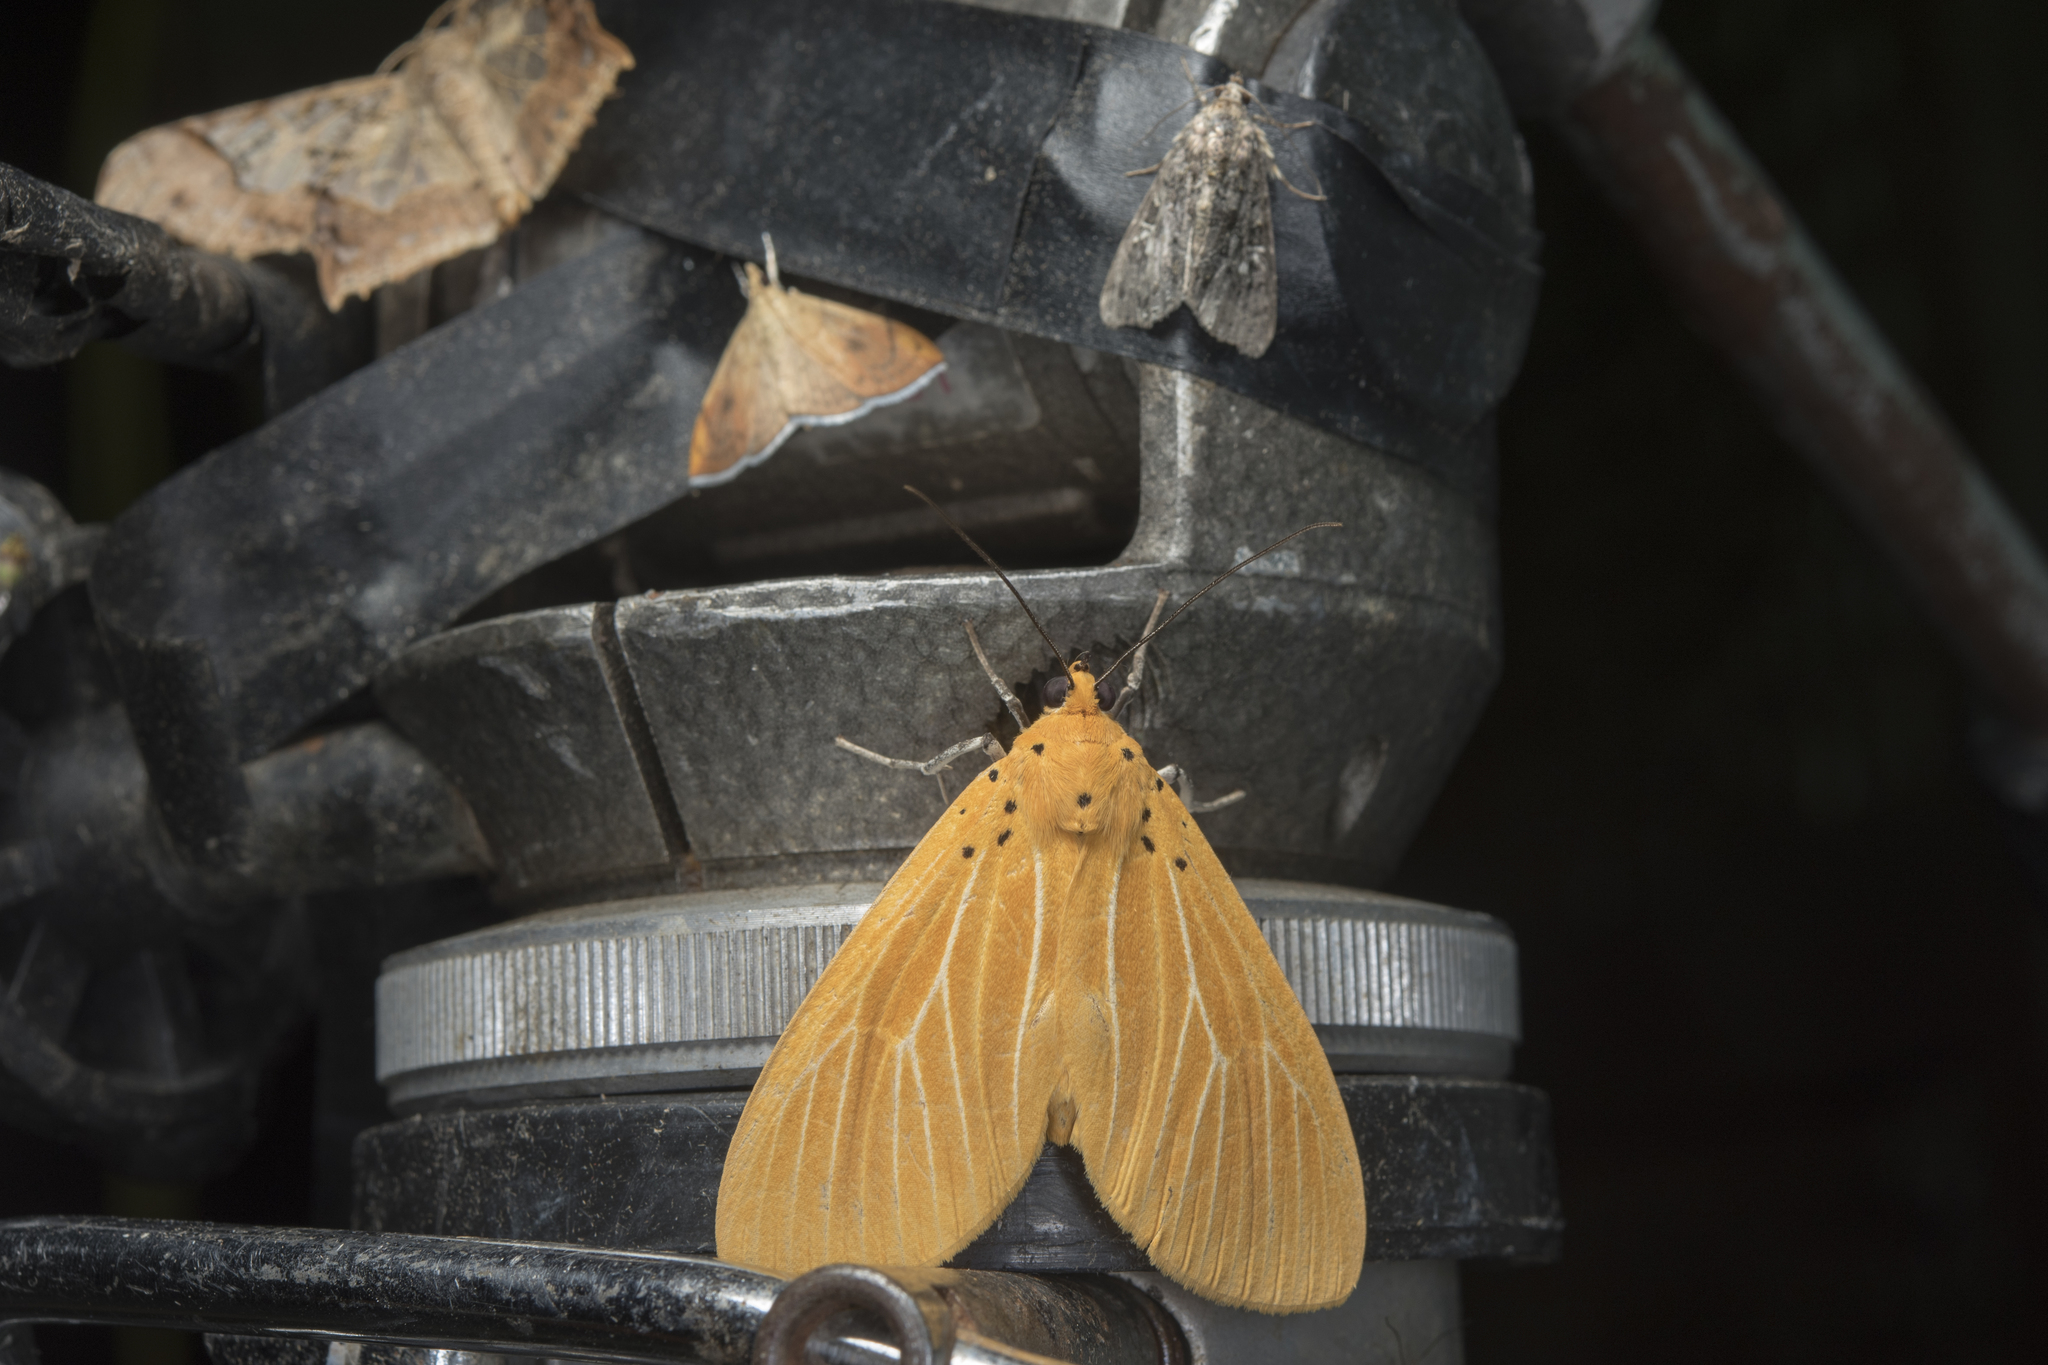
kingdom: Animalia
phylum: Arthropoda
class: Insecta
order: Lepidoptera
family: Erebidae
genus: Asota
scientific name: Asota egens
